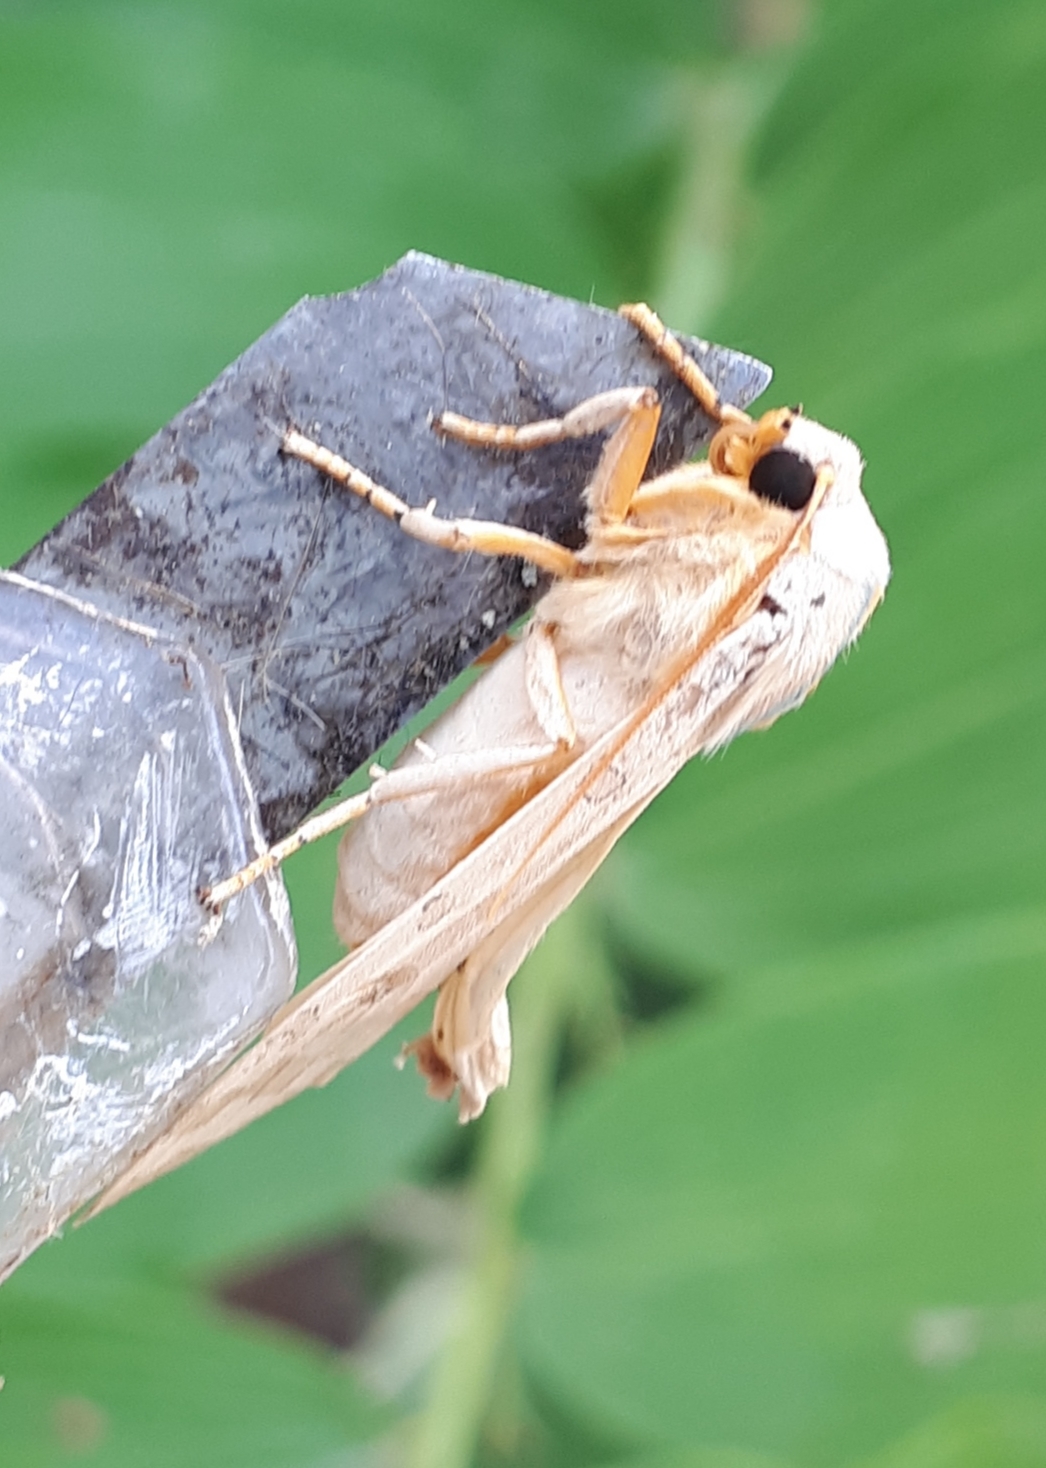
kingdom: Animalia
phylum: Arthropoda
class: Insecta
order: Lepidoptera
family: Erebidae
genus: Halysidota
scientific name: Halysidota tessellaris
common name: Banded tussock moth
